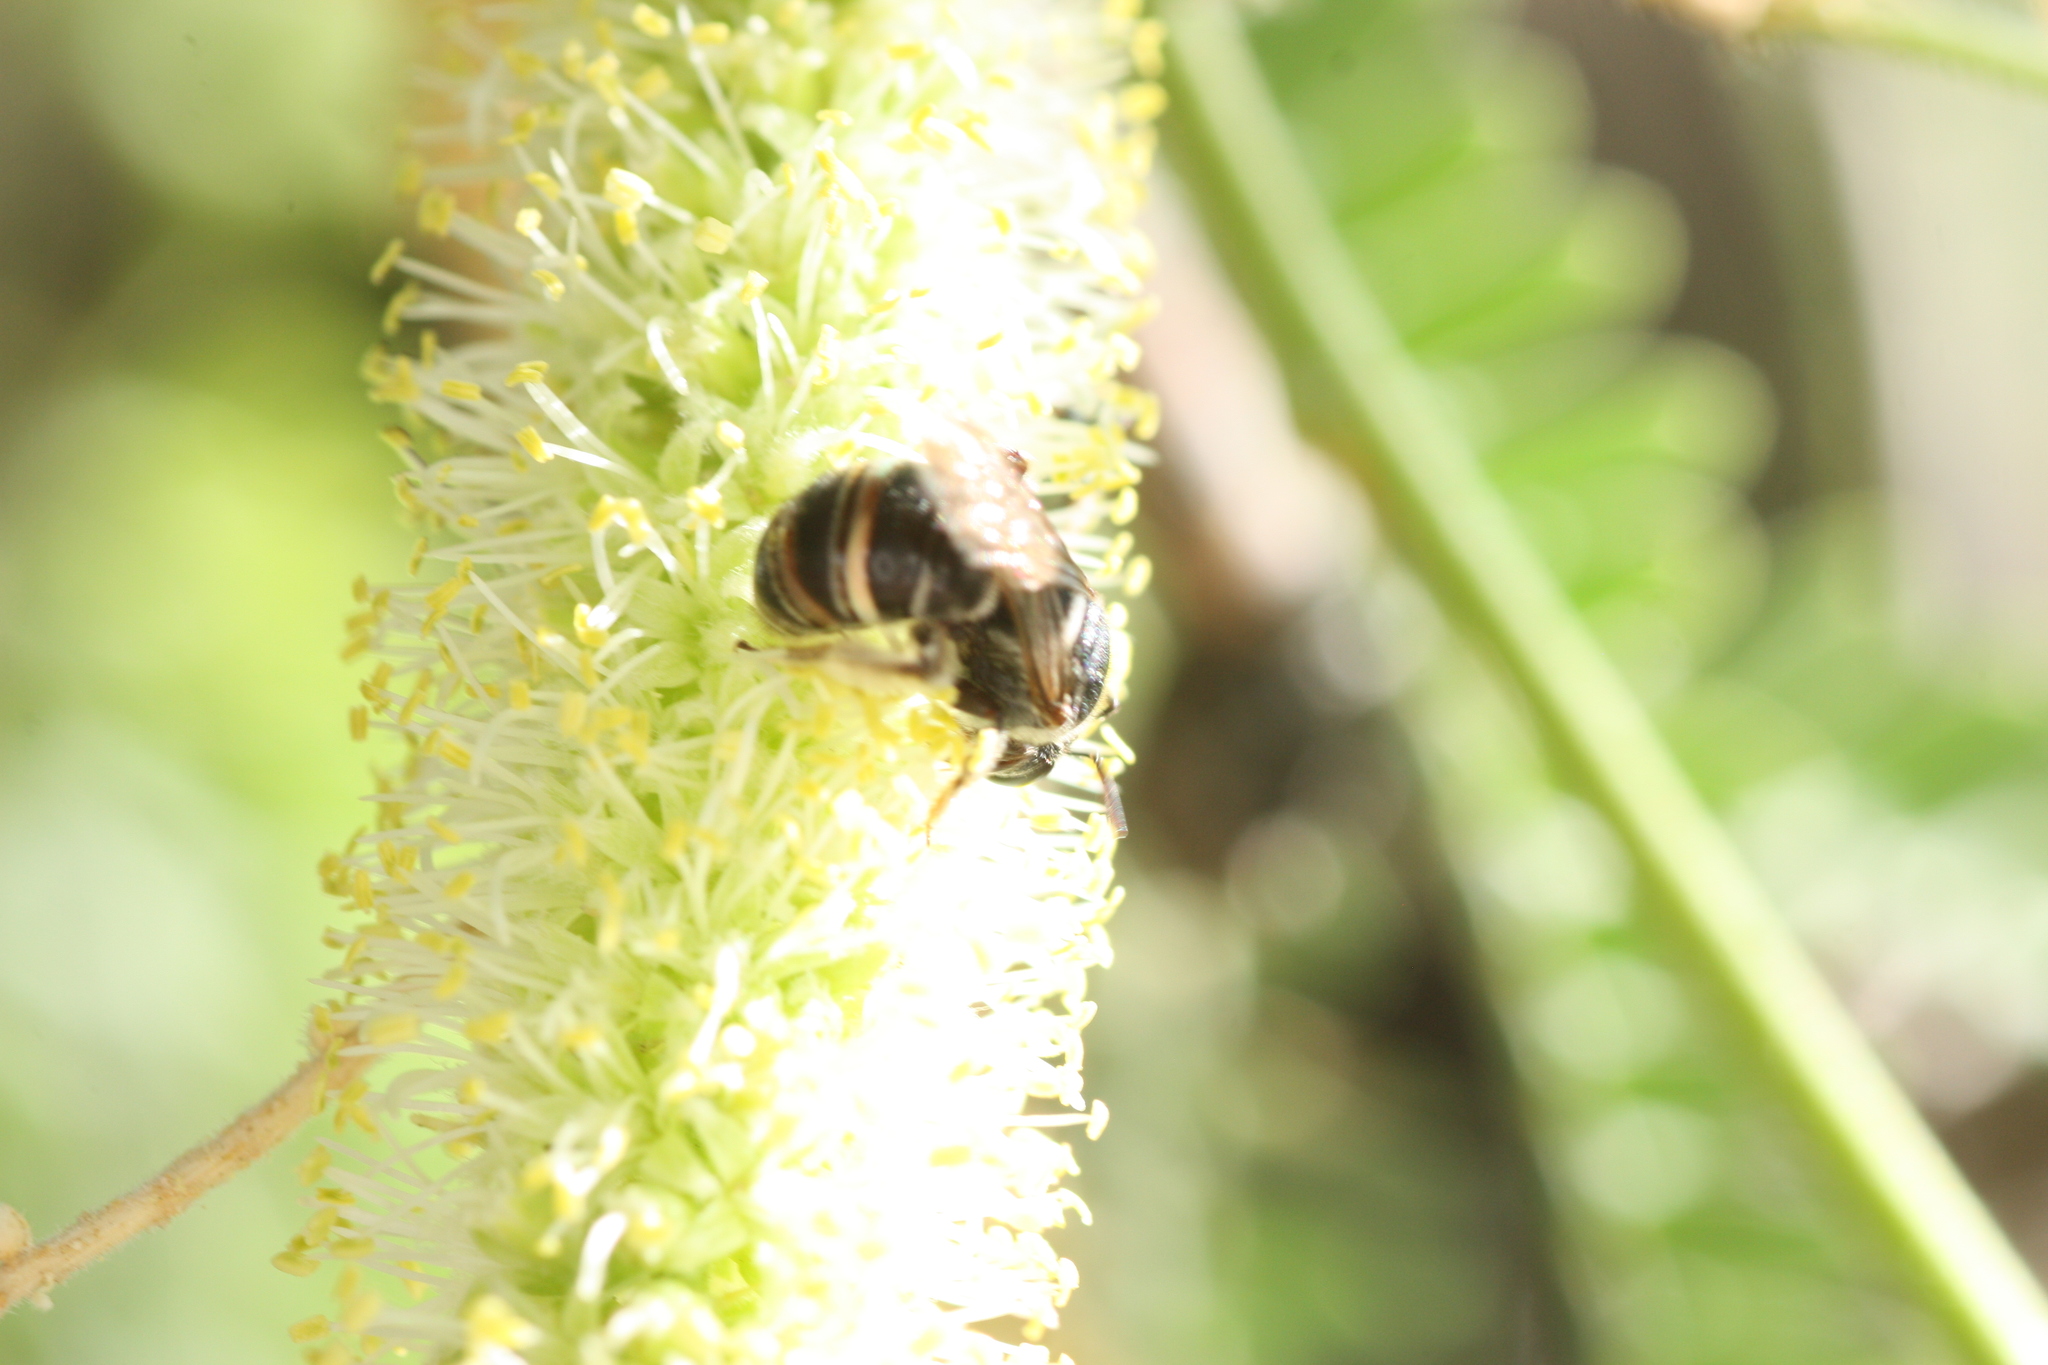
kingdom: Animalia
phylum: Arthropoda
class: Insecta
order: Hymenoptera
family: Halictidae
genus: Acunomia
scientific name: Acunomia
